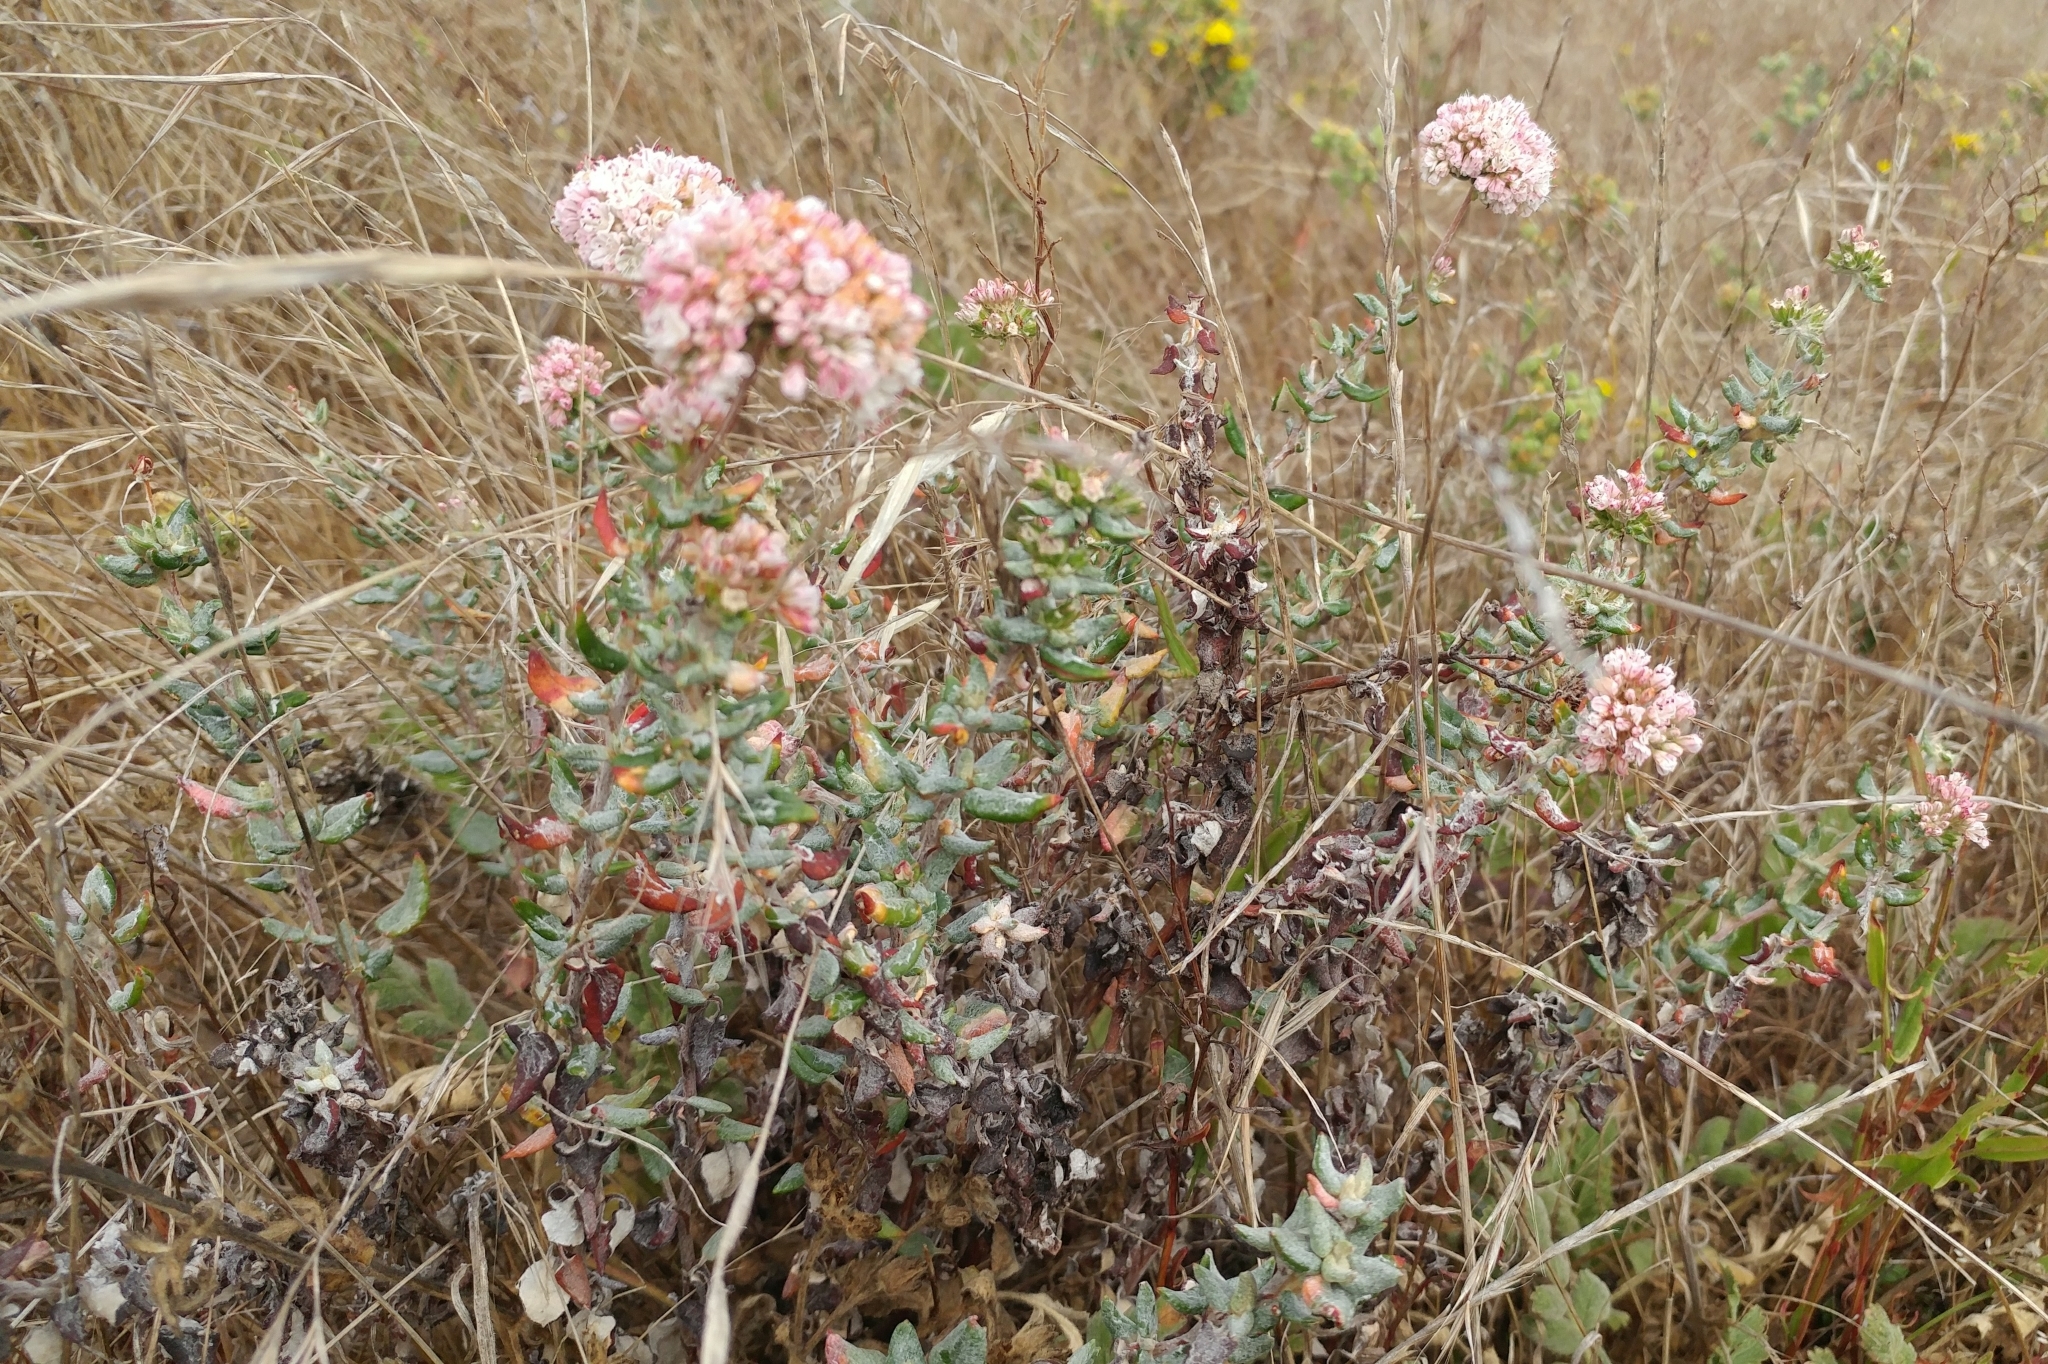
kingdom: Plantae
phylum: Tracheophyta
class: Magnoliopsida
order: Caryophyllales
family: Polygonaceae
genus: Eriogonum
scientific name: Eriogonum parvifolium
